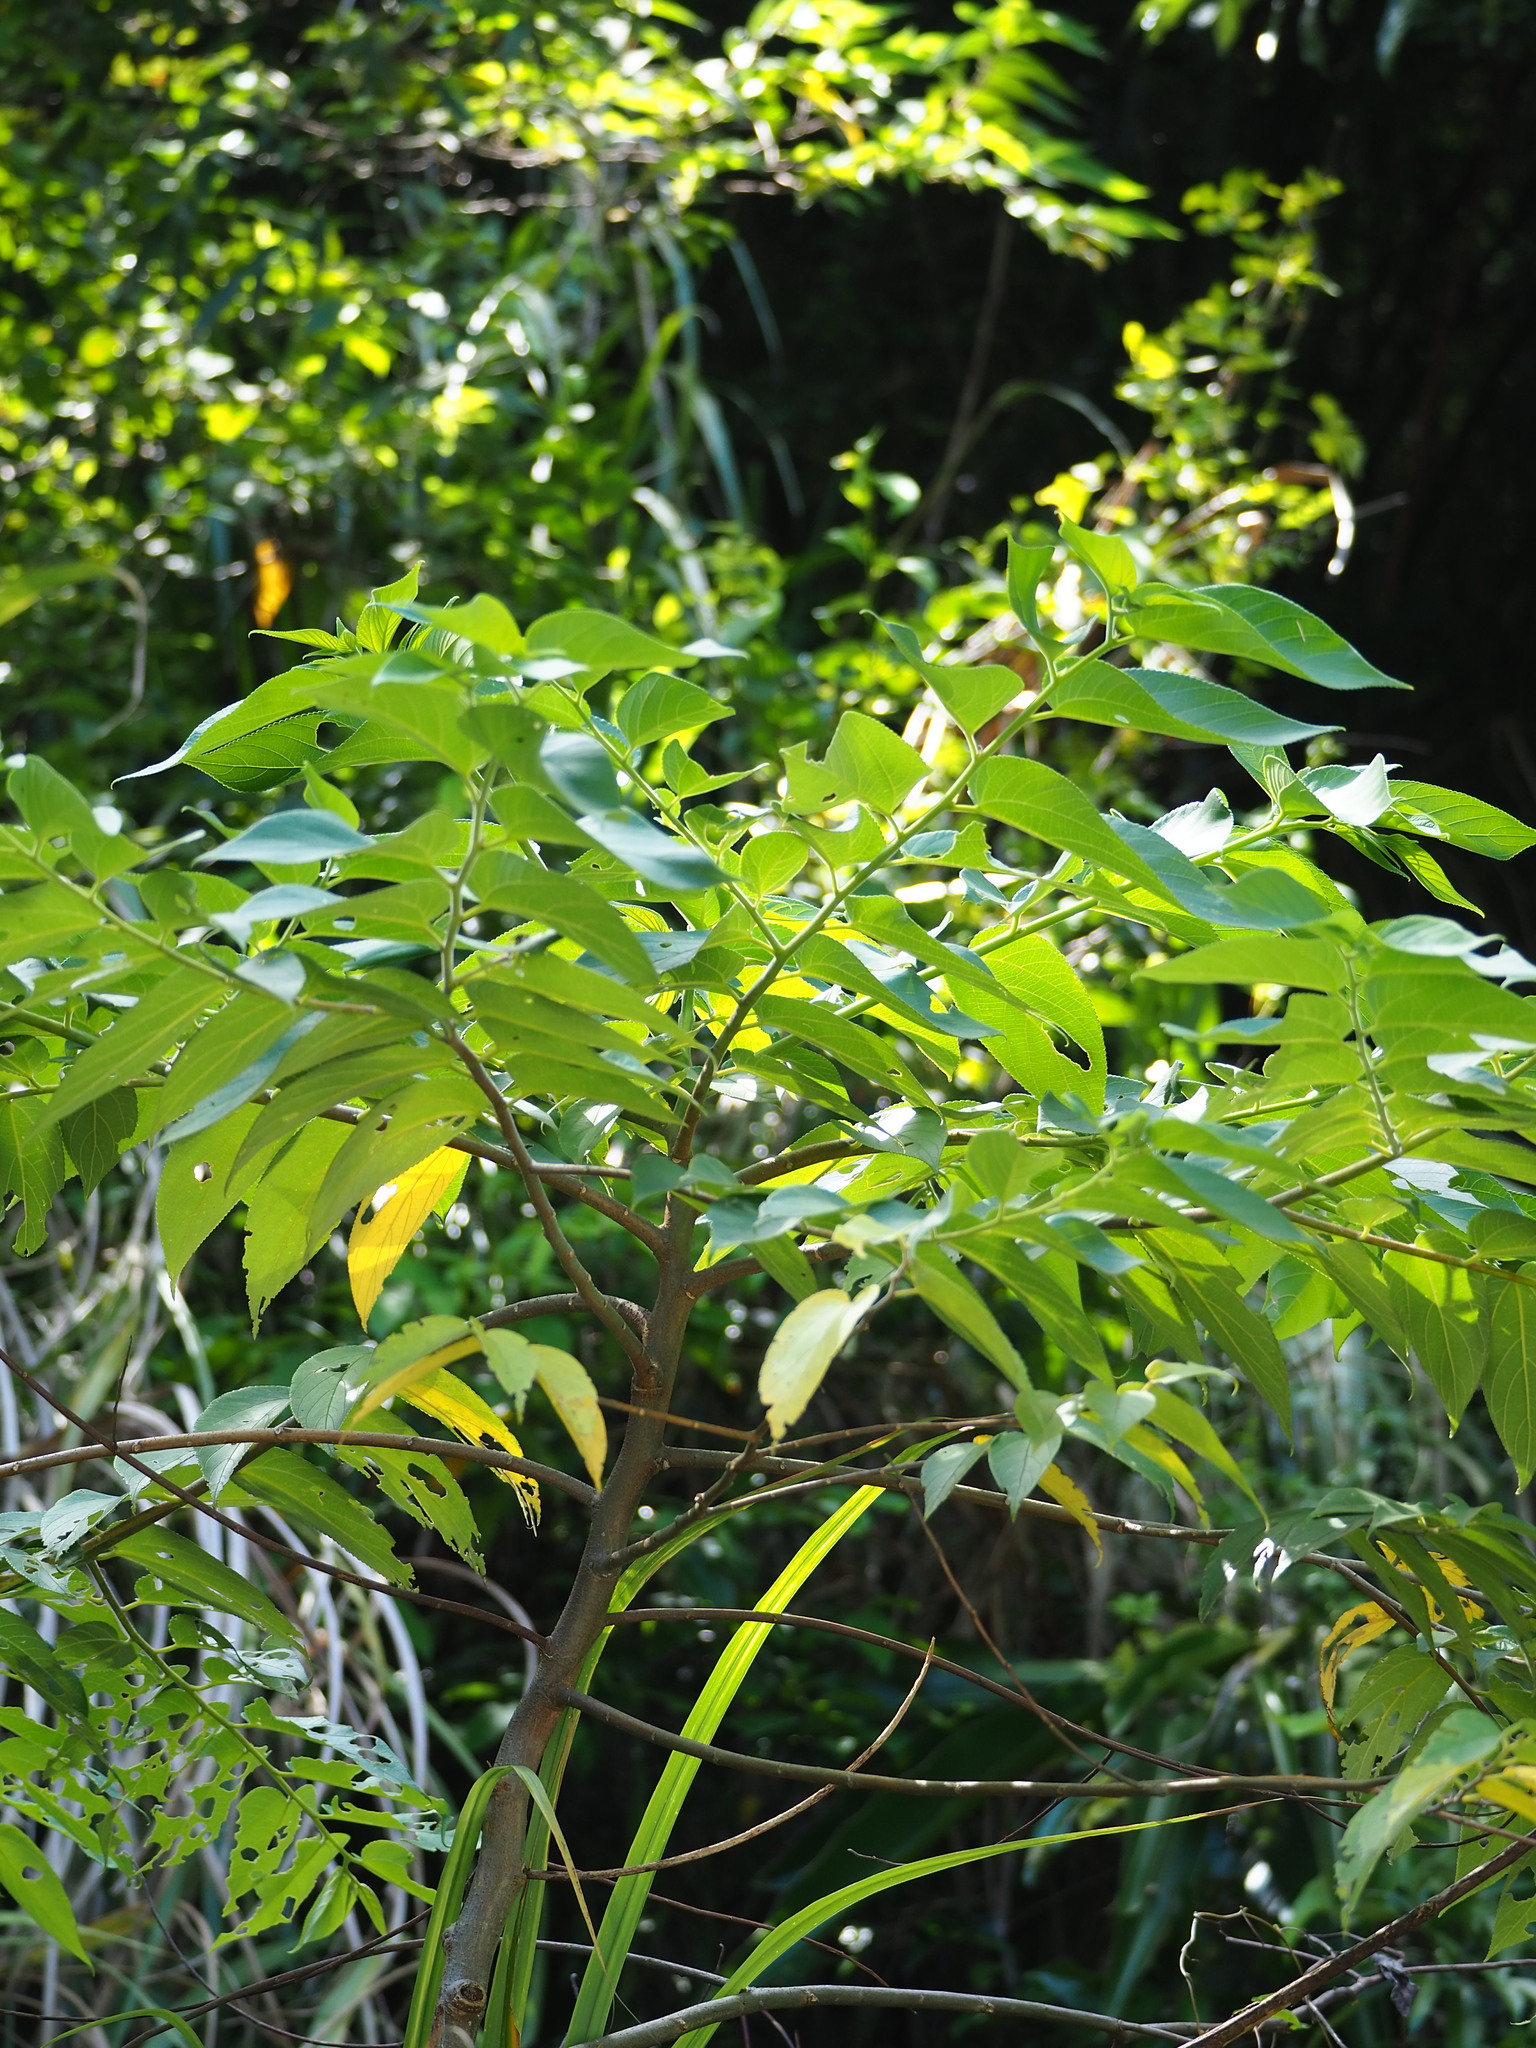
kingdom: Plantae
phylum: Tracheophyta
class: Magnoliopsida
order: Rosales
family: Cannabaceae
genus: Trema
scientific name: Trema orientale
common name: Indian charcoal tree
